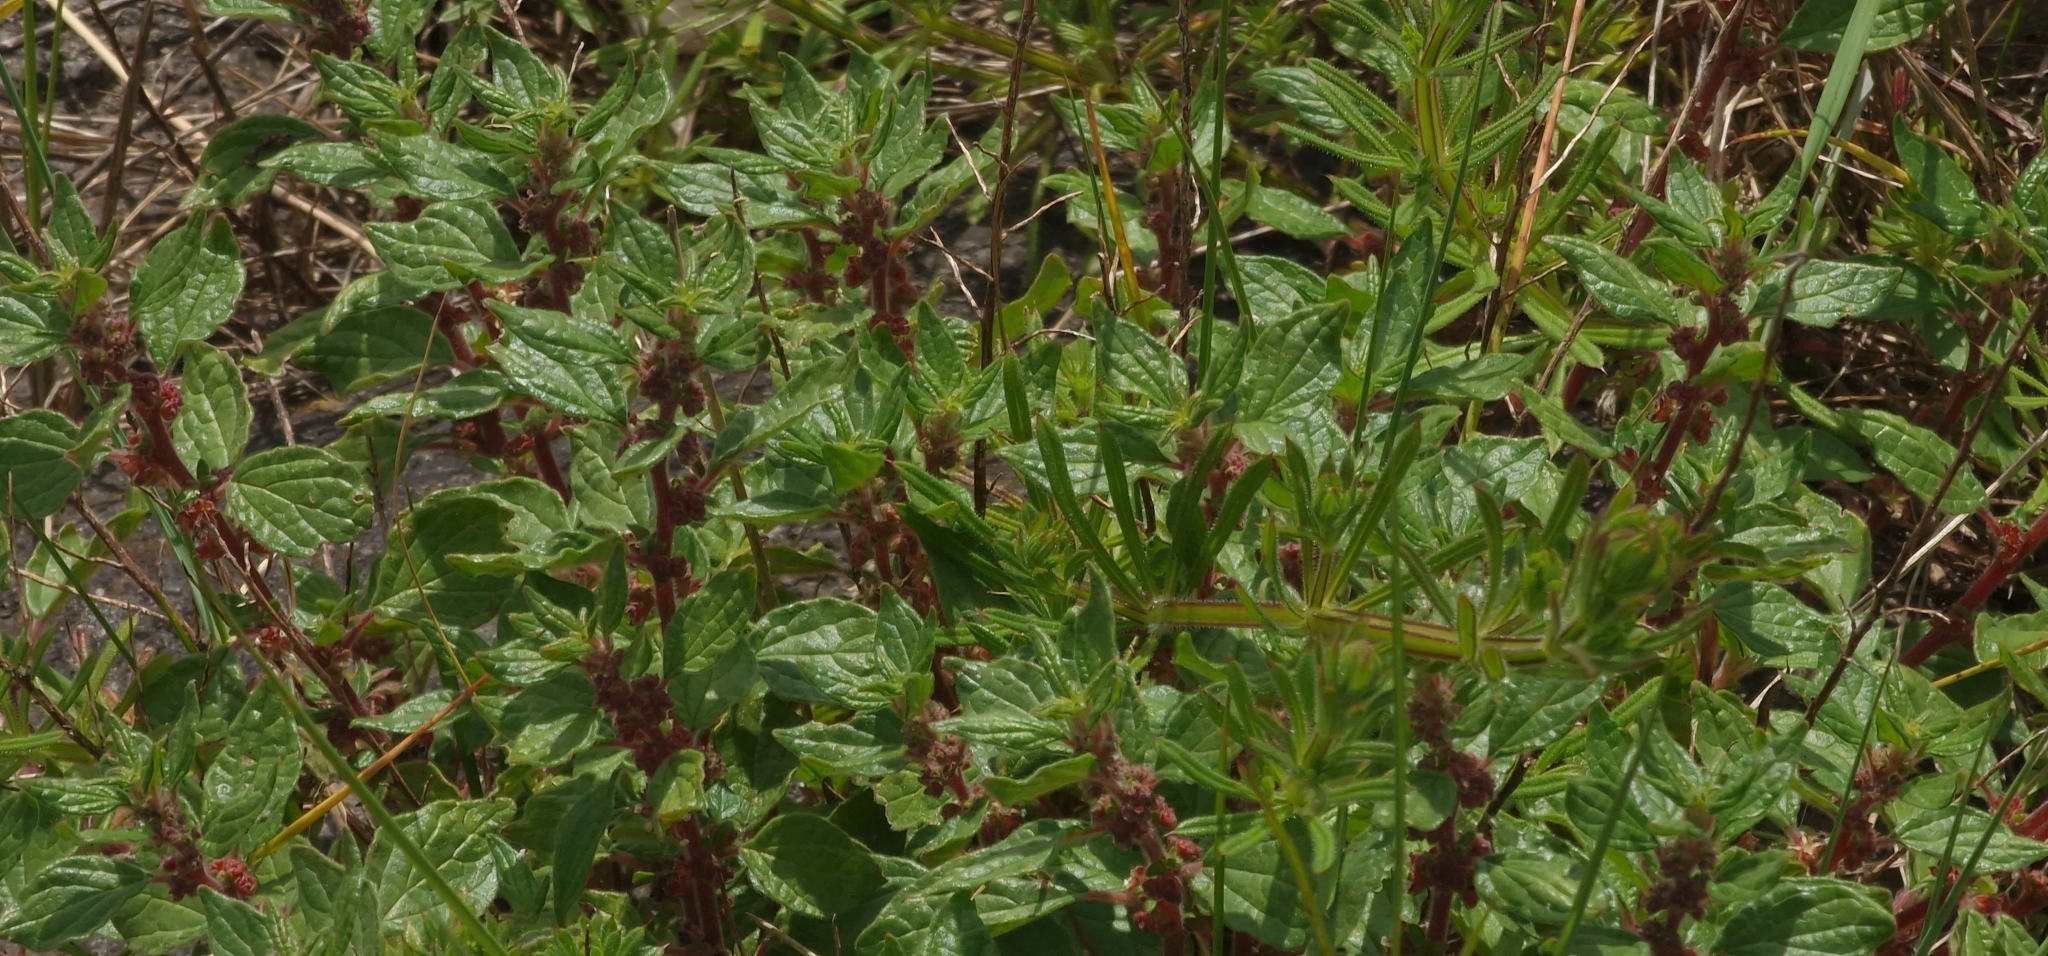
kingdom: Plantae
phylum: Tracheophyta
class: Magnoliopsida
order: Rosales
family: Urticaceae
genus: Parietaria
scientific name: Parietaria judaica
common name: Pellitory-of-the-wall
